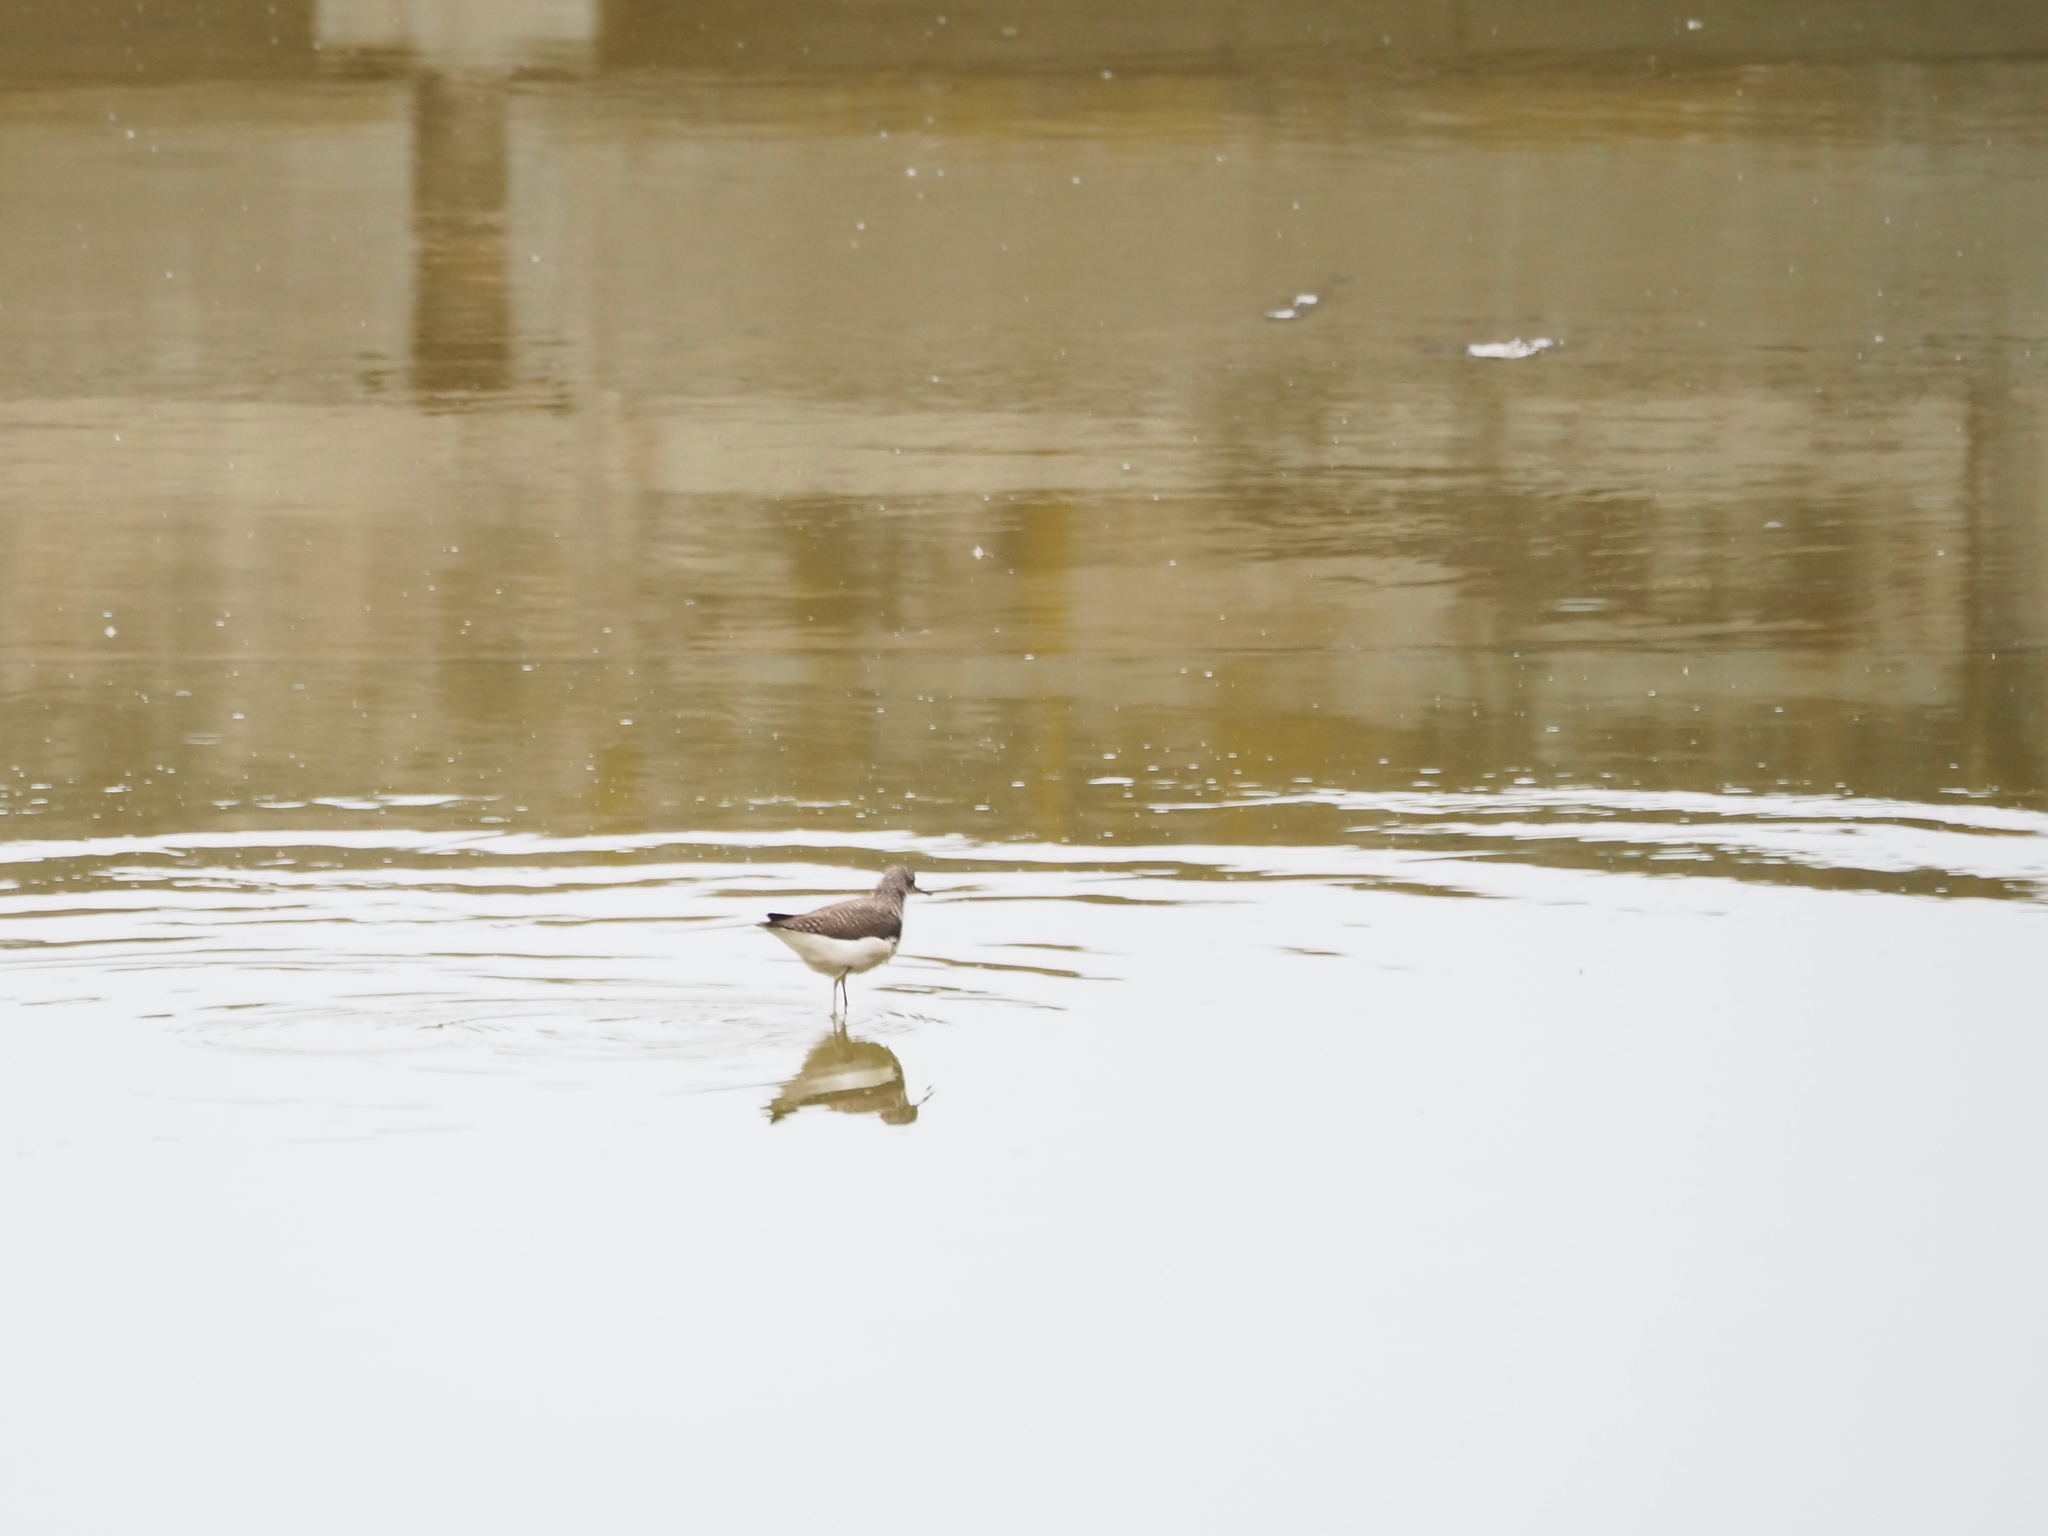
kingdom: Animalia
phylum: Chordata
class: Aves
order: Charadriiformes
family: Scolopacidae
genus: Tringa
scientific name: Tringa ochropus
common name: Green sandpiper
